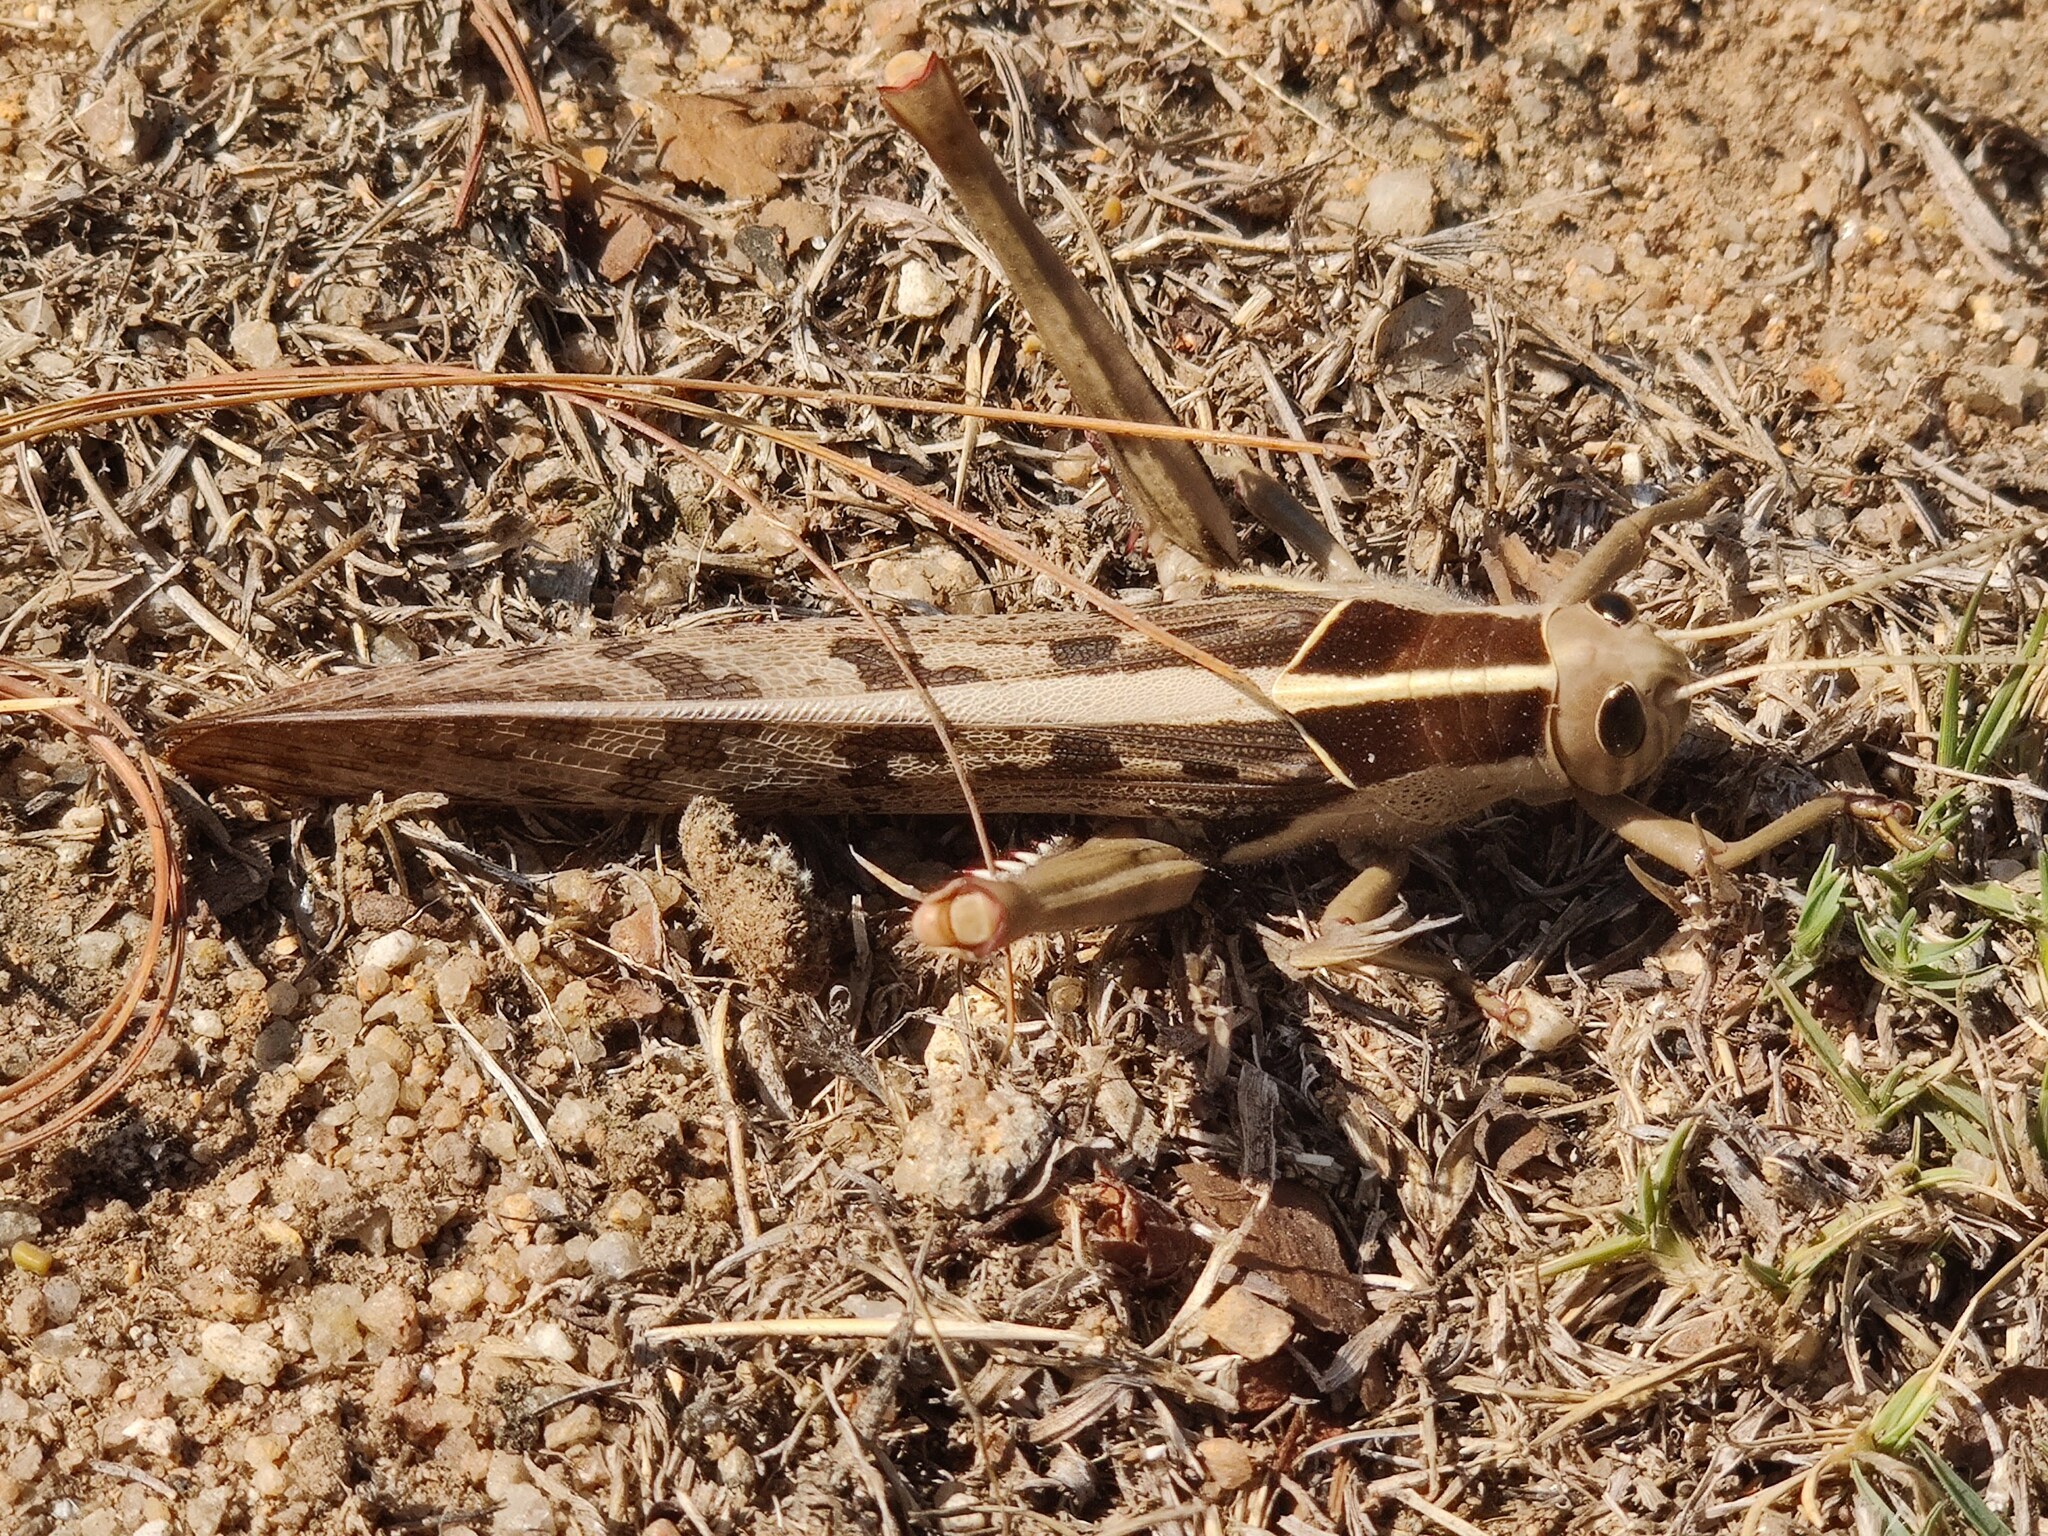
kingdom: Animalia
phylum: Arthropoda
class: Insecta
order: Orthoptera
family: Acrididae
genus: Acanthacris
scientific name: Acanthacris ruficornis
